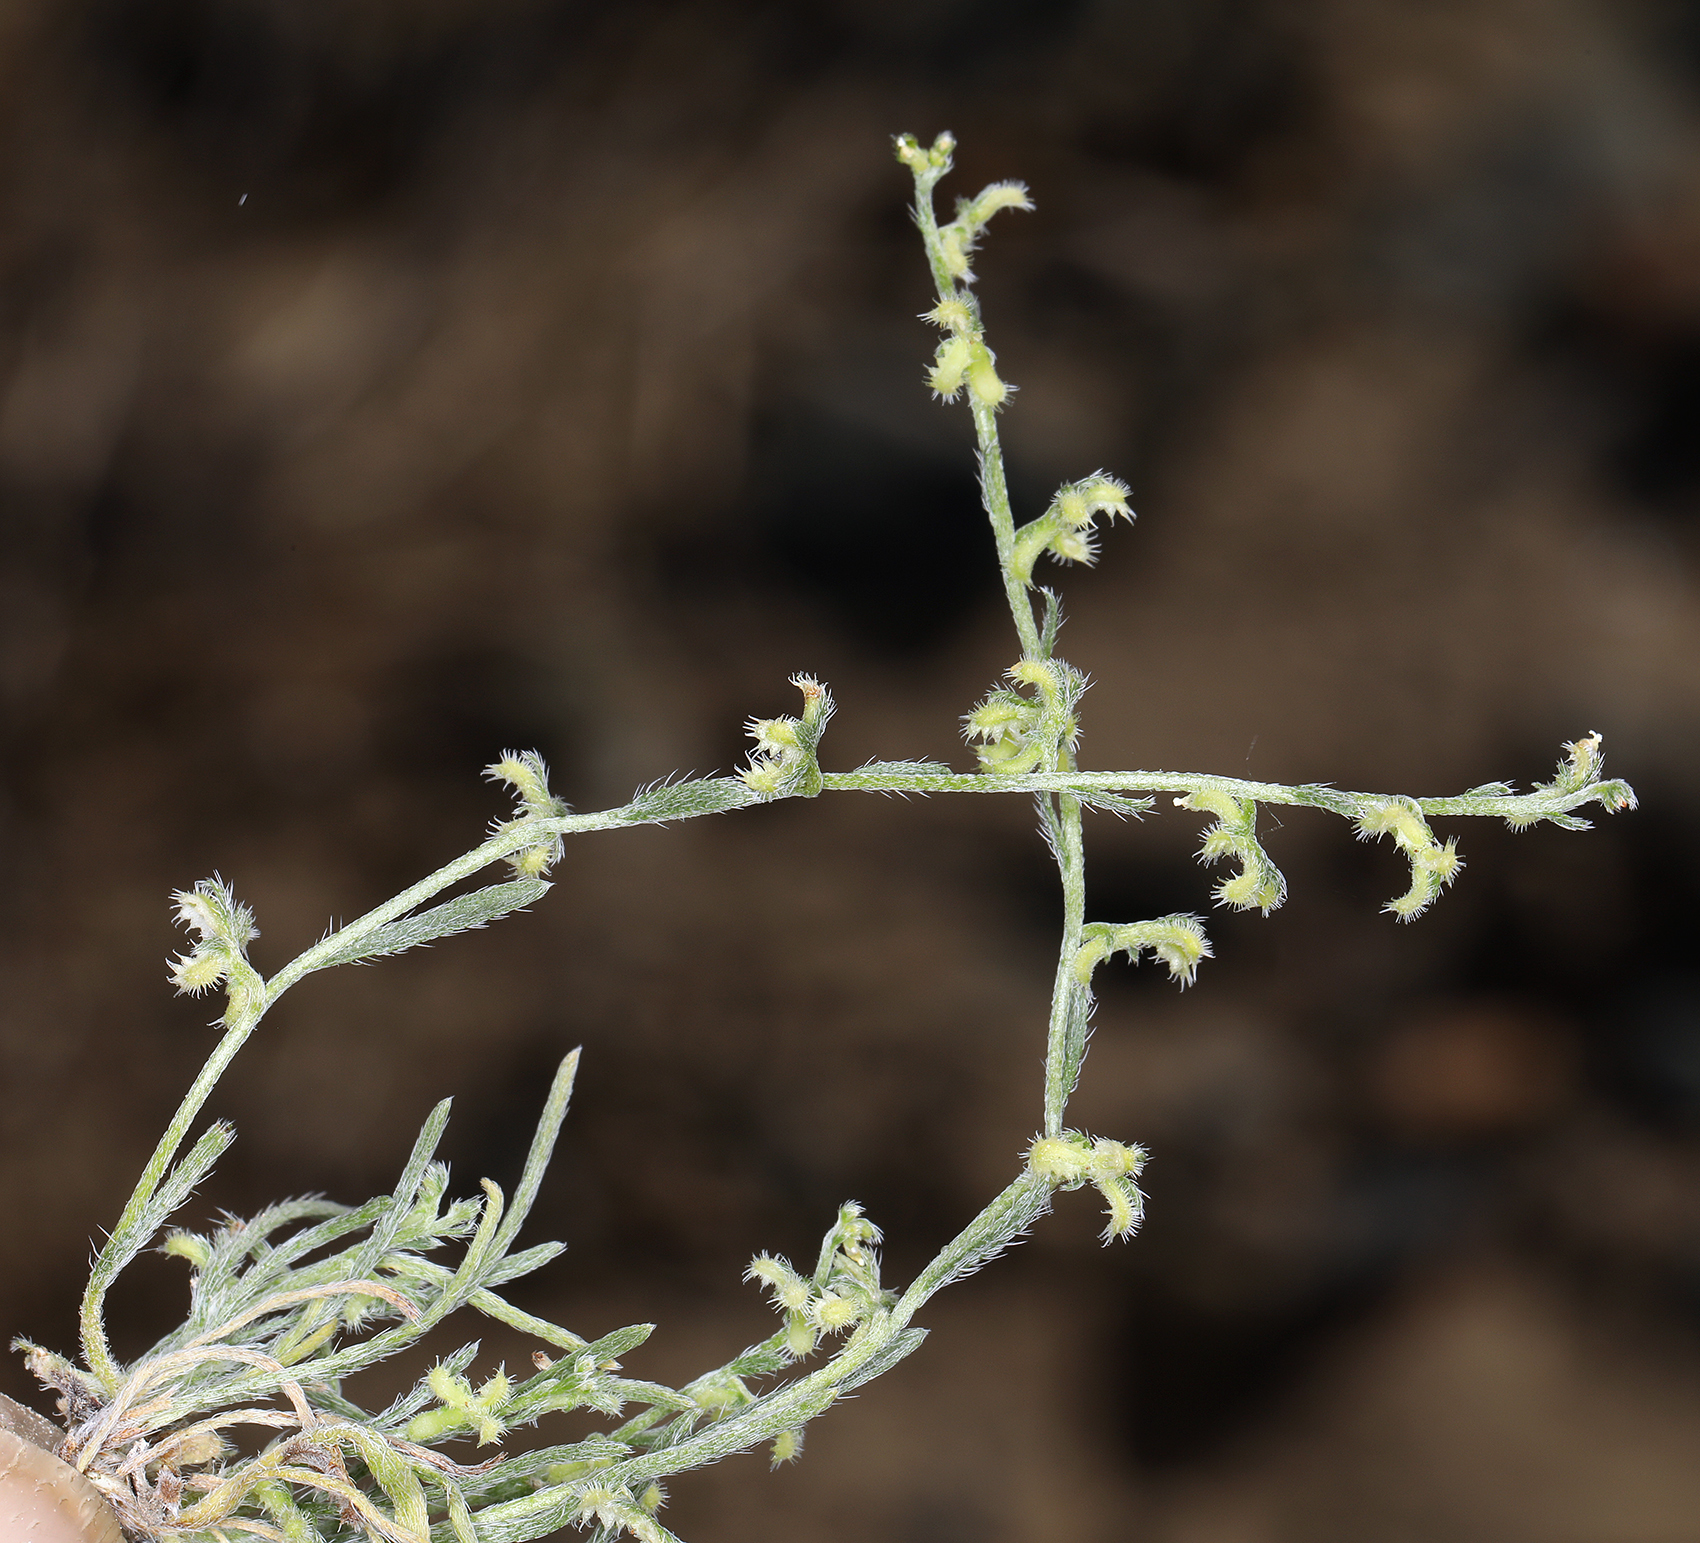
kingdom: Plantae
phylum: Tracheophyta
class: Magnoliopsida
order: Boraginales
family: Boraginaceae
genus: Pectocarya
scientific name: Pectocarya heterocarpa
